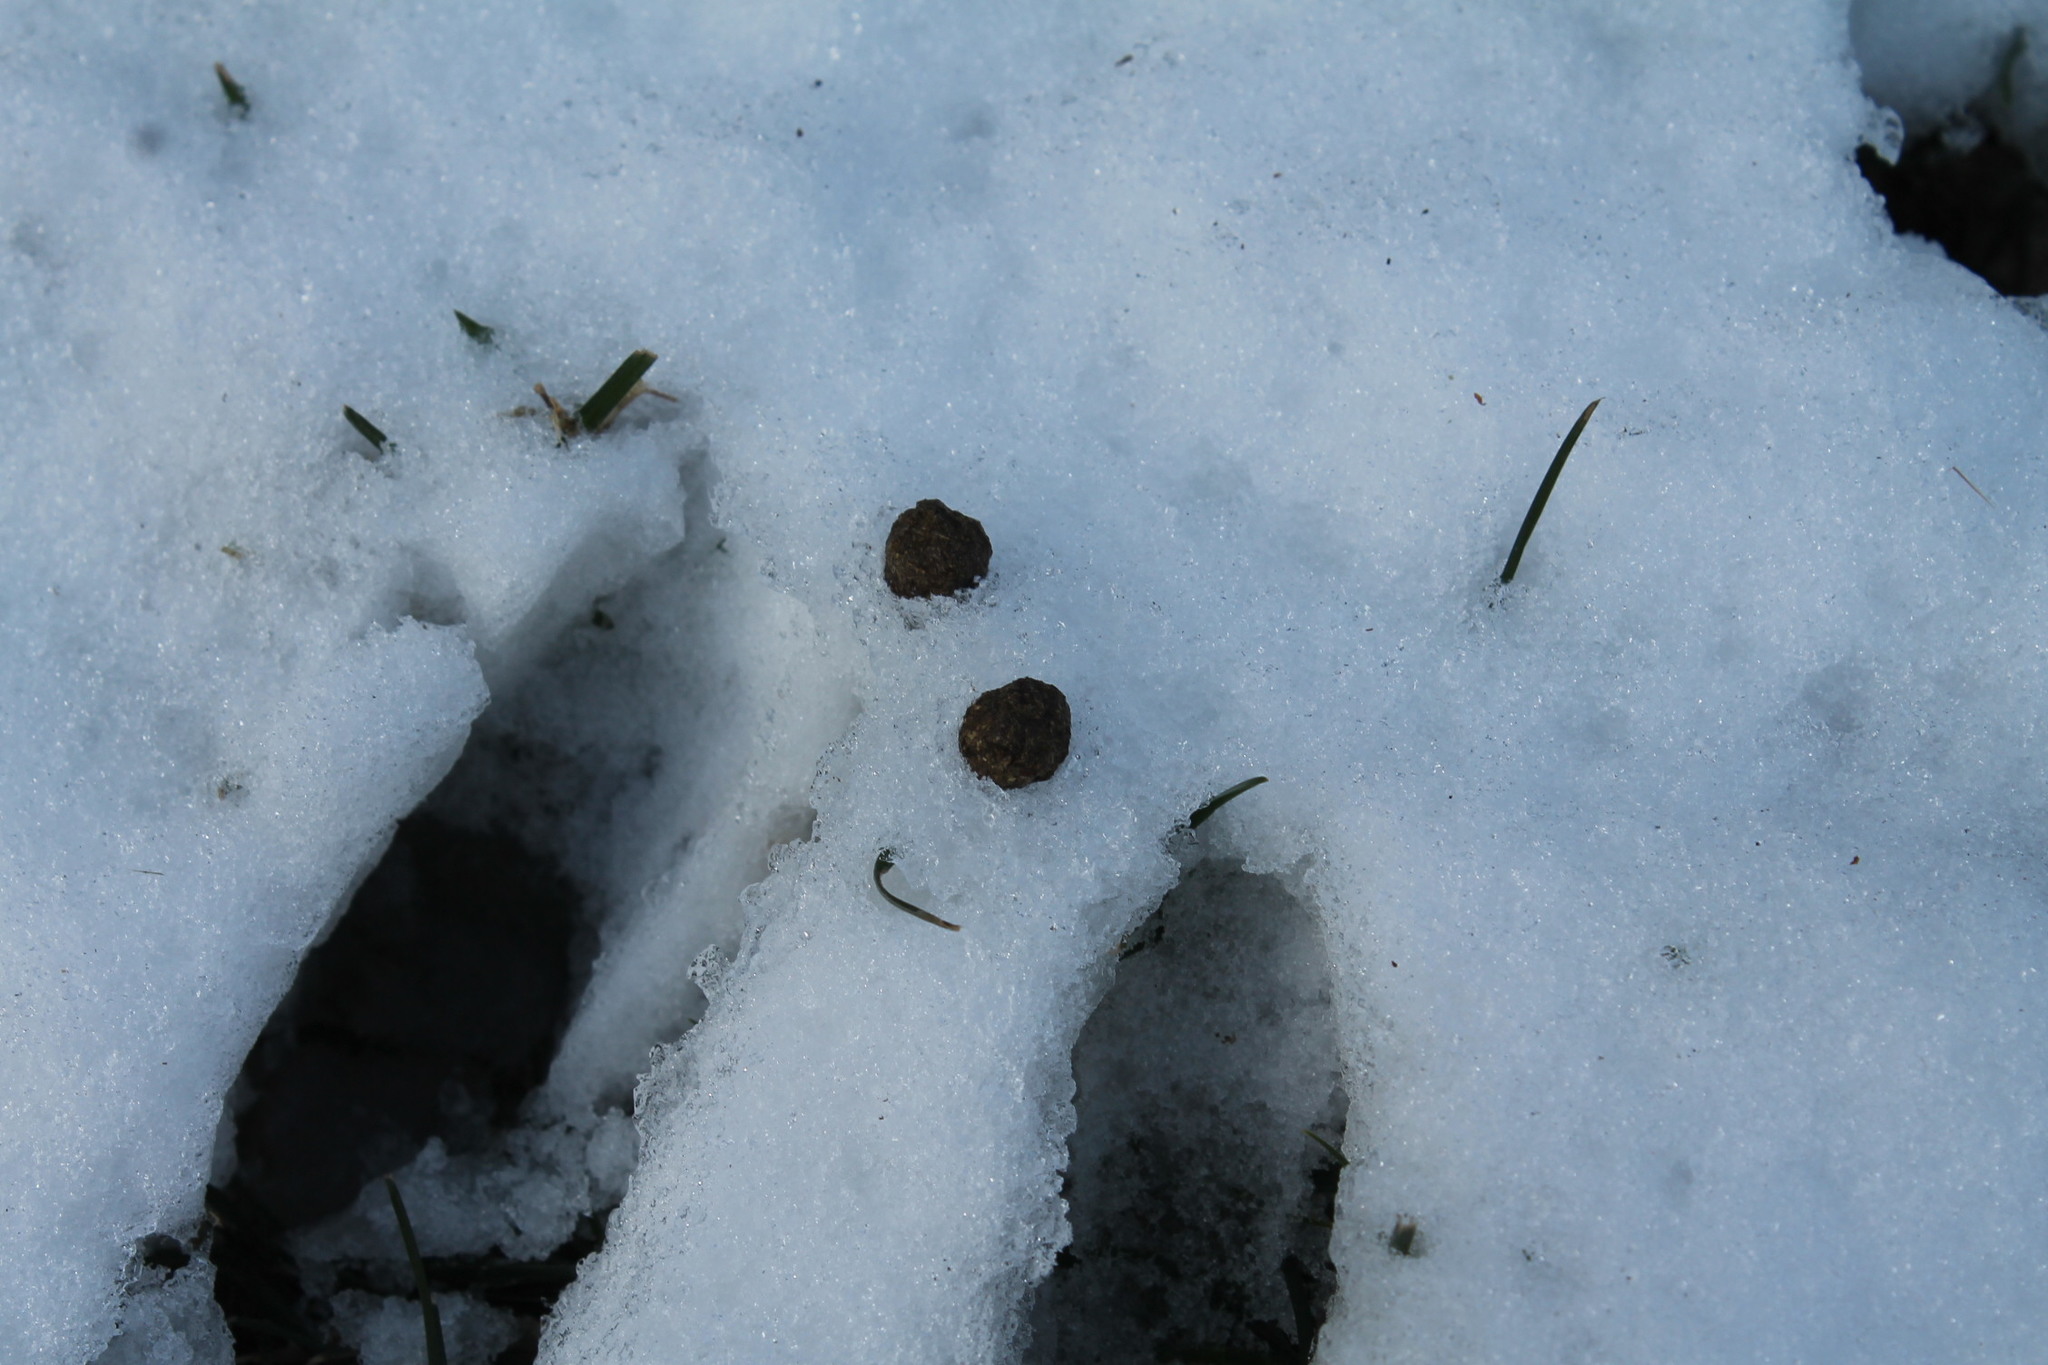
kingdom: Animalia
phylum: Chordata
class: Mammalia
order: Lagomorpha
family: Leporidae
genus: Sylvilagus
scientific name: Sylvilagus floridanus
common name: Eastern cottontail
